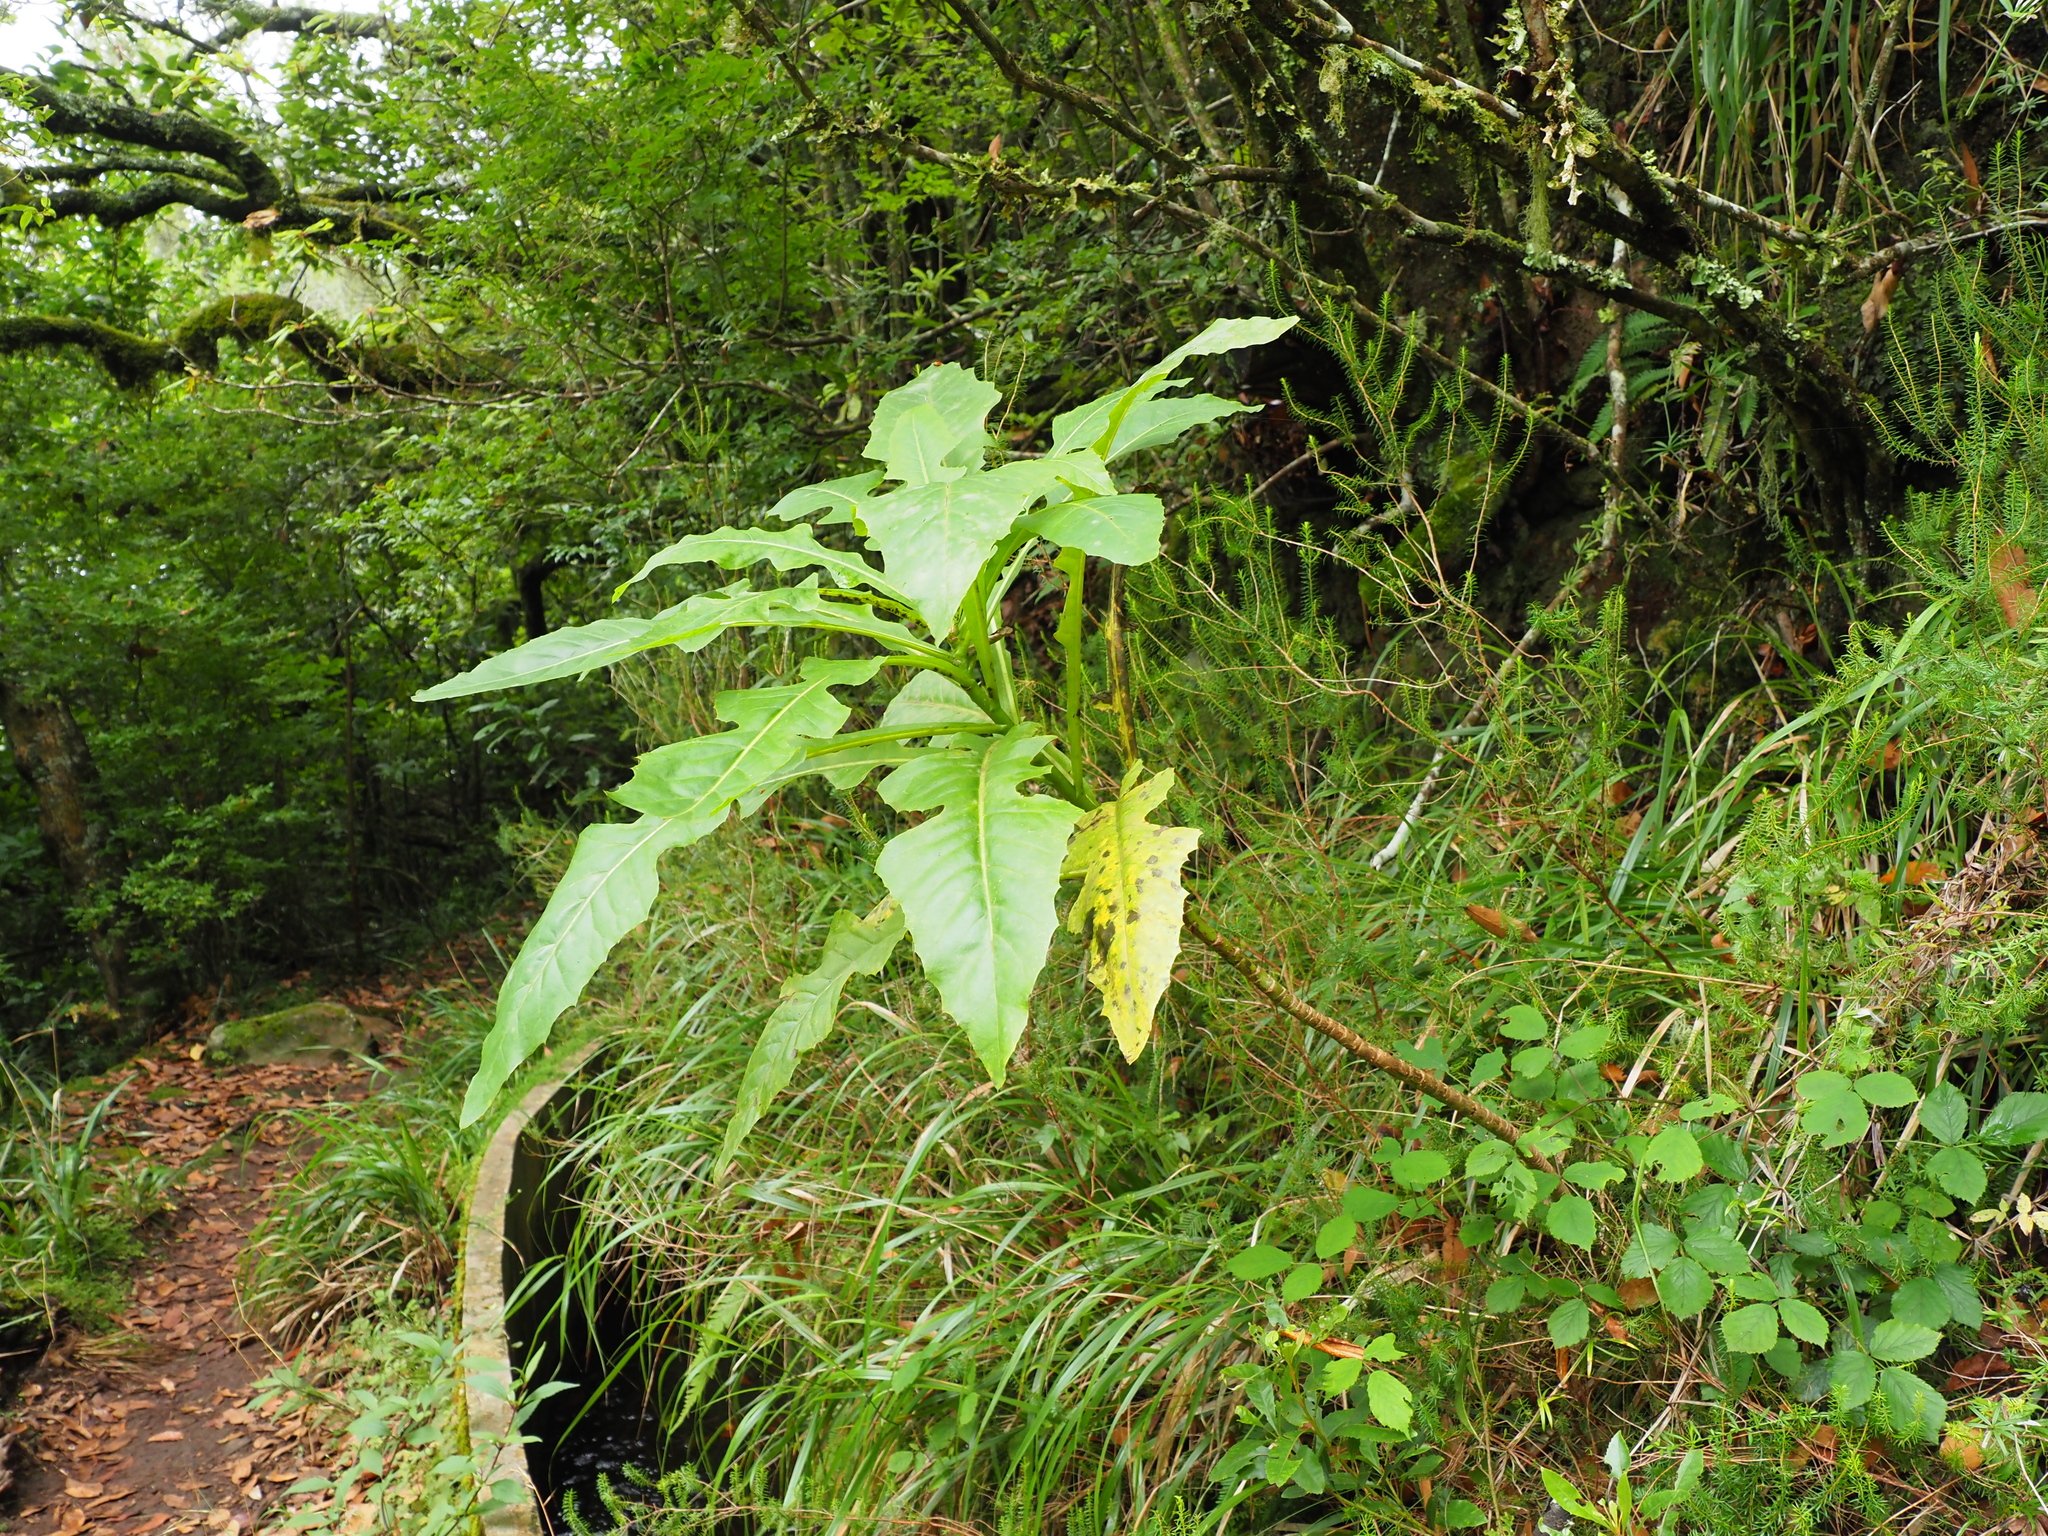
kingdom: Plantae
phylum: Tracheophyta
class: Magnoliopsida
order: Asterales
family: Asteraceae
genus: Sonchus
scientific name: Sonchus fruticosus
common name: Shrubby sow-thistle
